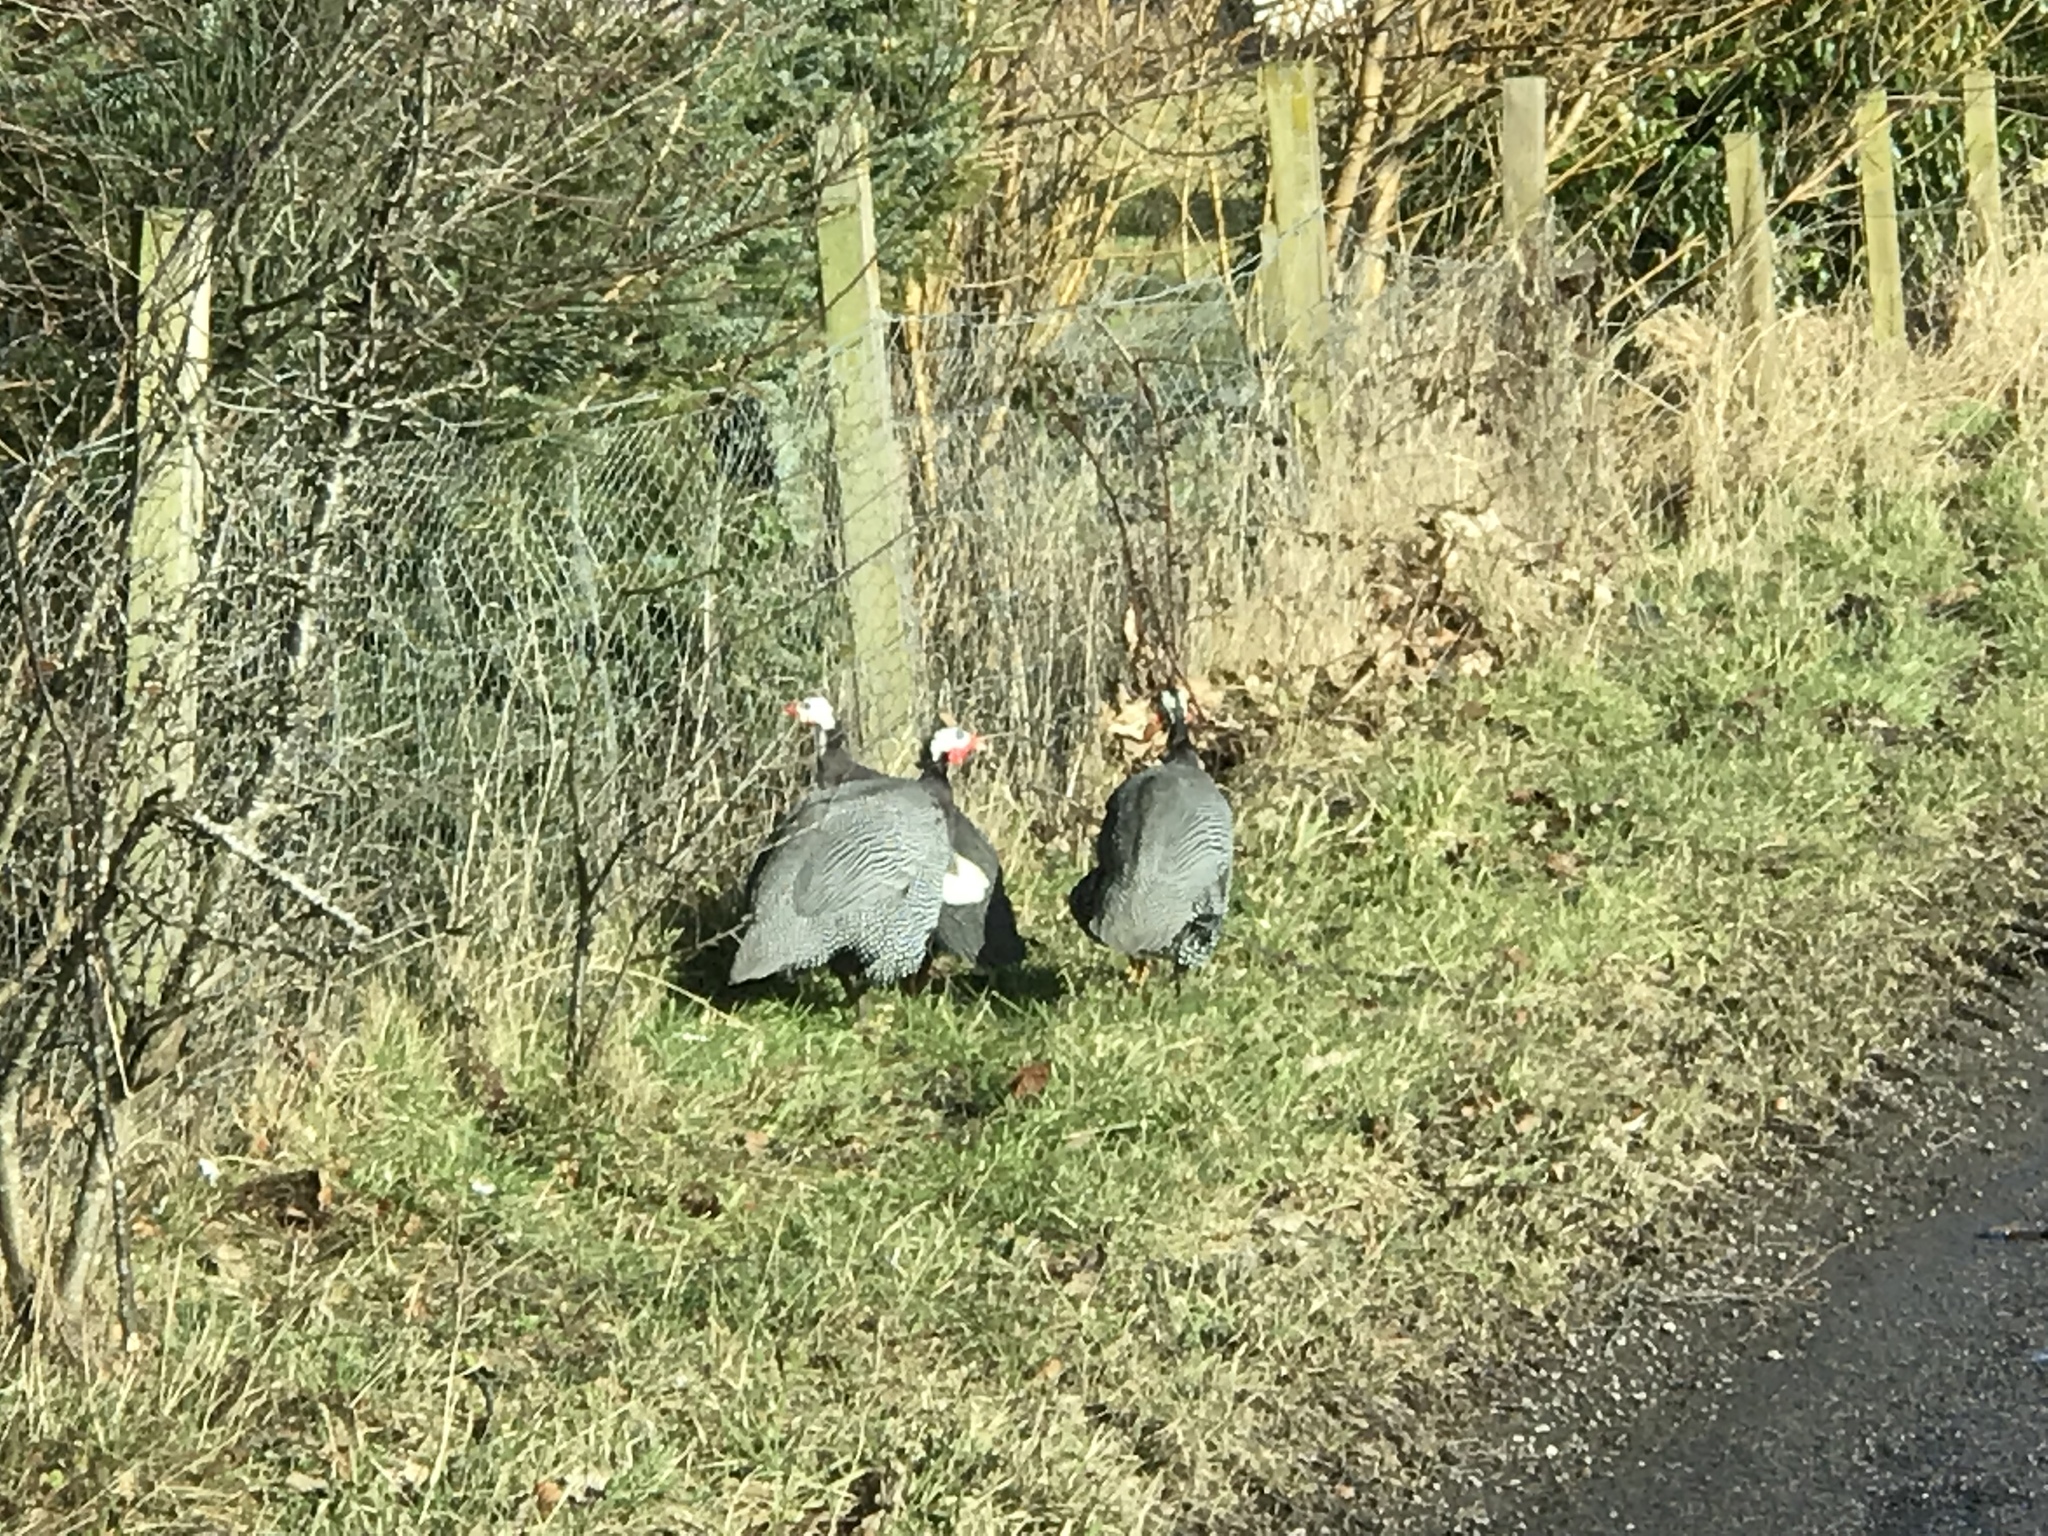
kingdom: Animalia
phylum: Chordata
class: Aves
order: Galliformes
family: Numididae
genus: Numida
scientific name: Numida meleagris
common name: Helmeted guineafowl
